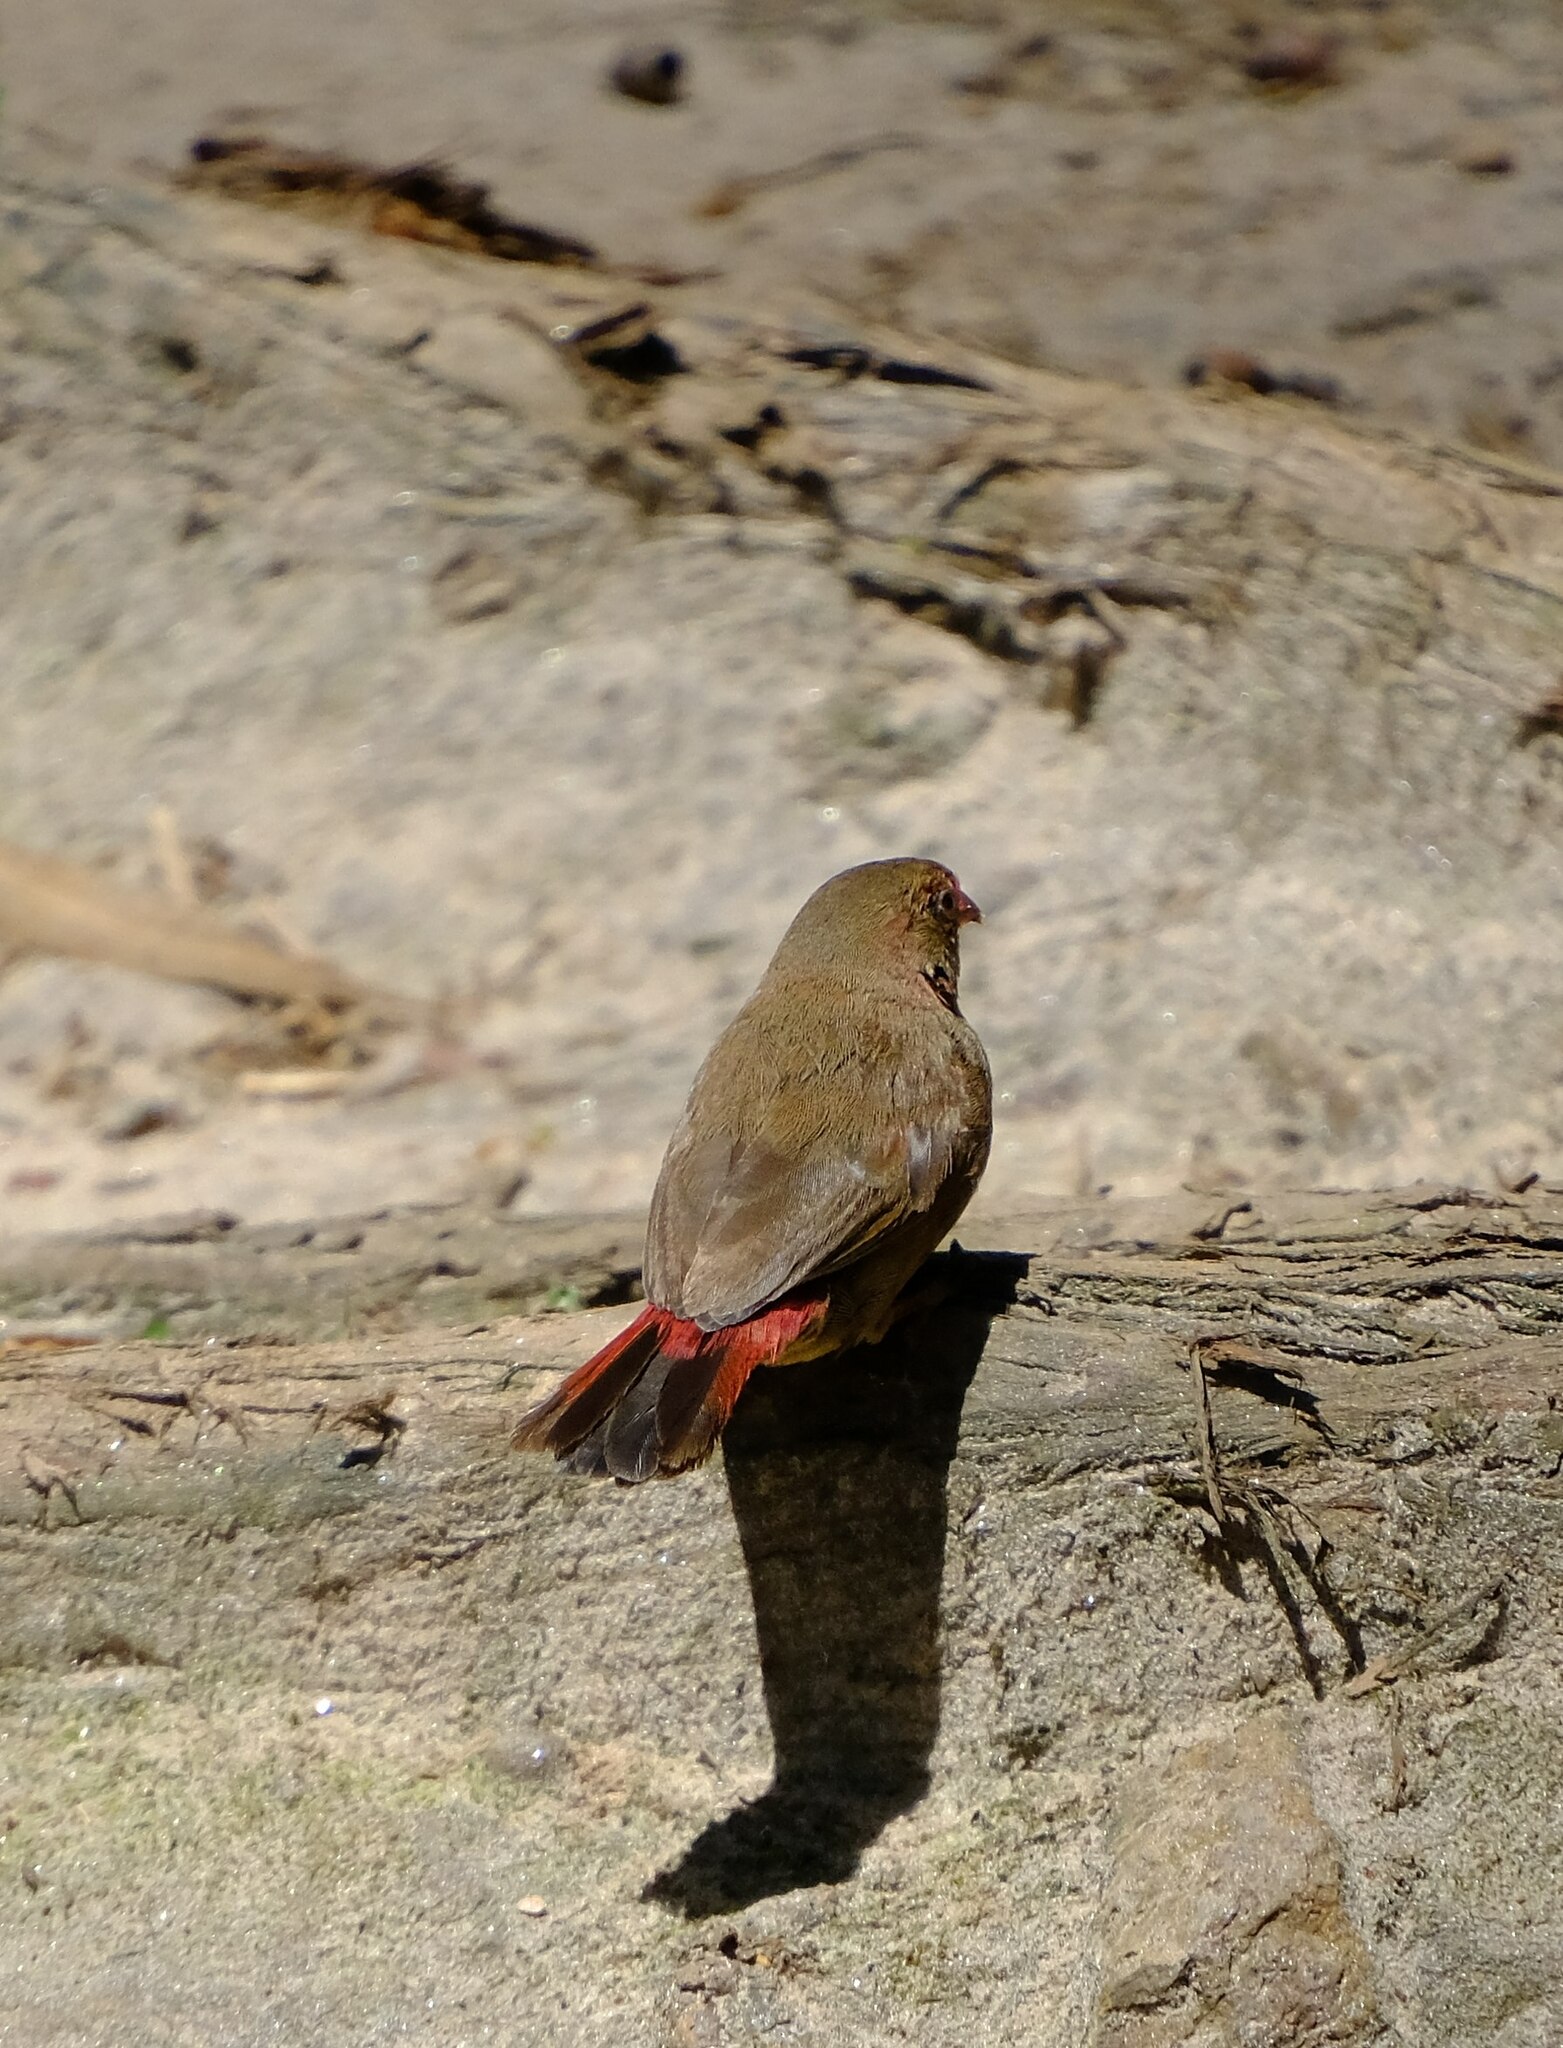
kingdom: Animalia
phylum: Chordata
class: Aves
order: Passeriformes
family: Estrildidae
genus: Lagonosticta
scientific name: Lagonosticta senegala
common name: Red-billed firefinch
